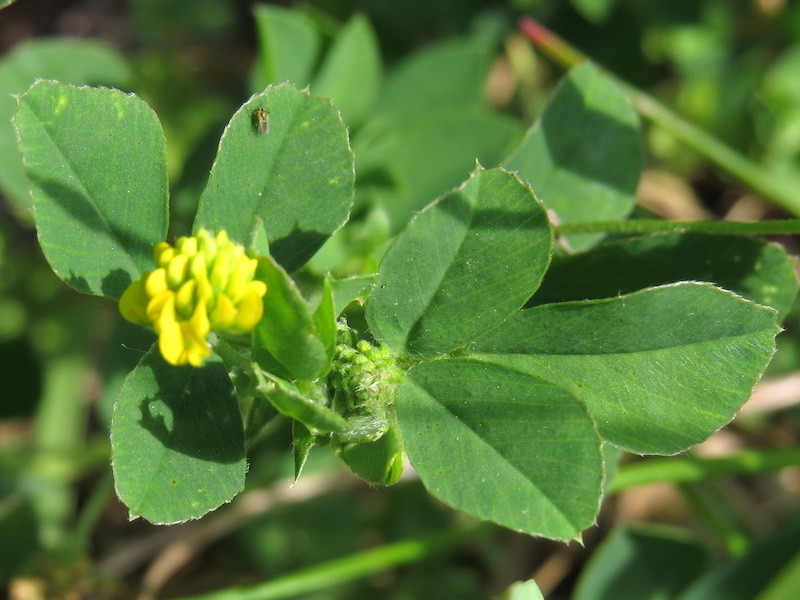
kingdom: Plantae
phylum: Tracheophyta
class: Magnoliopsida
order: Fabales
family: Fabaceae
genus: Medicago
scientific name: Medicago lupulina
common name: Black medick
